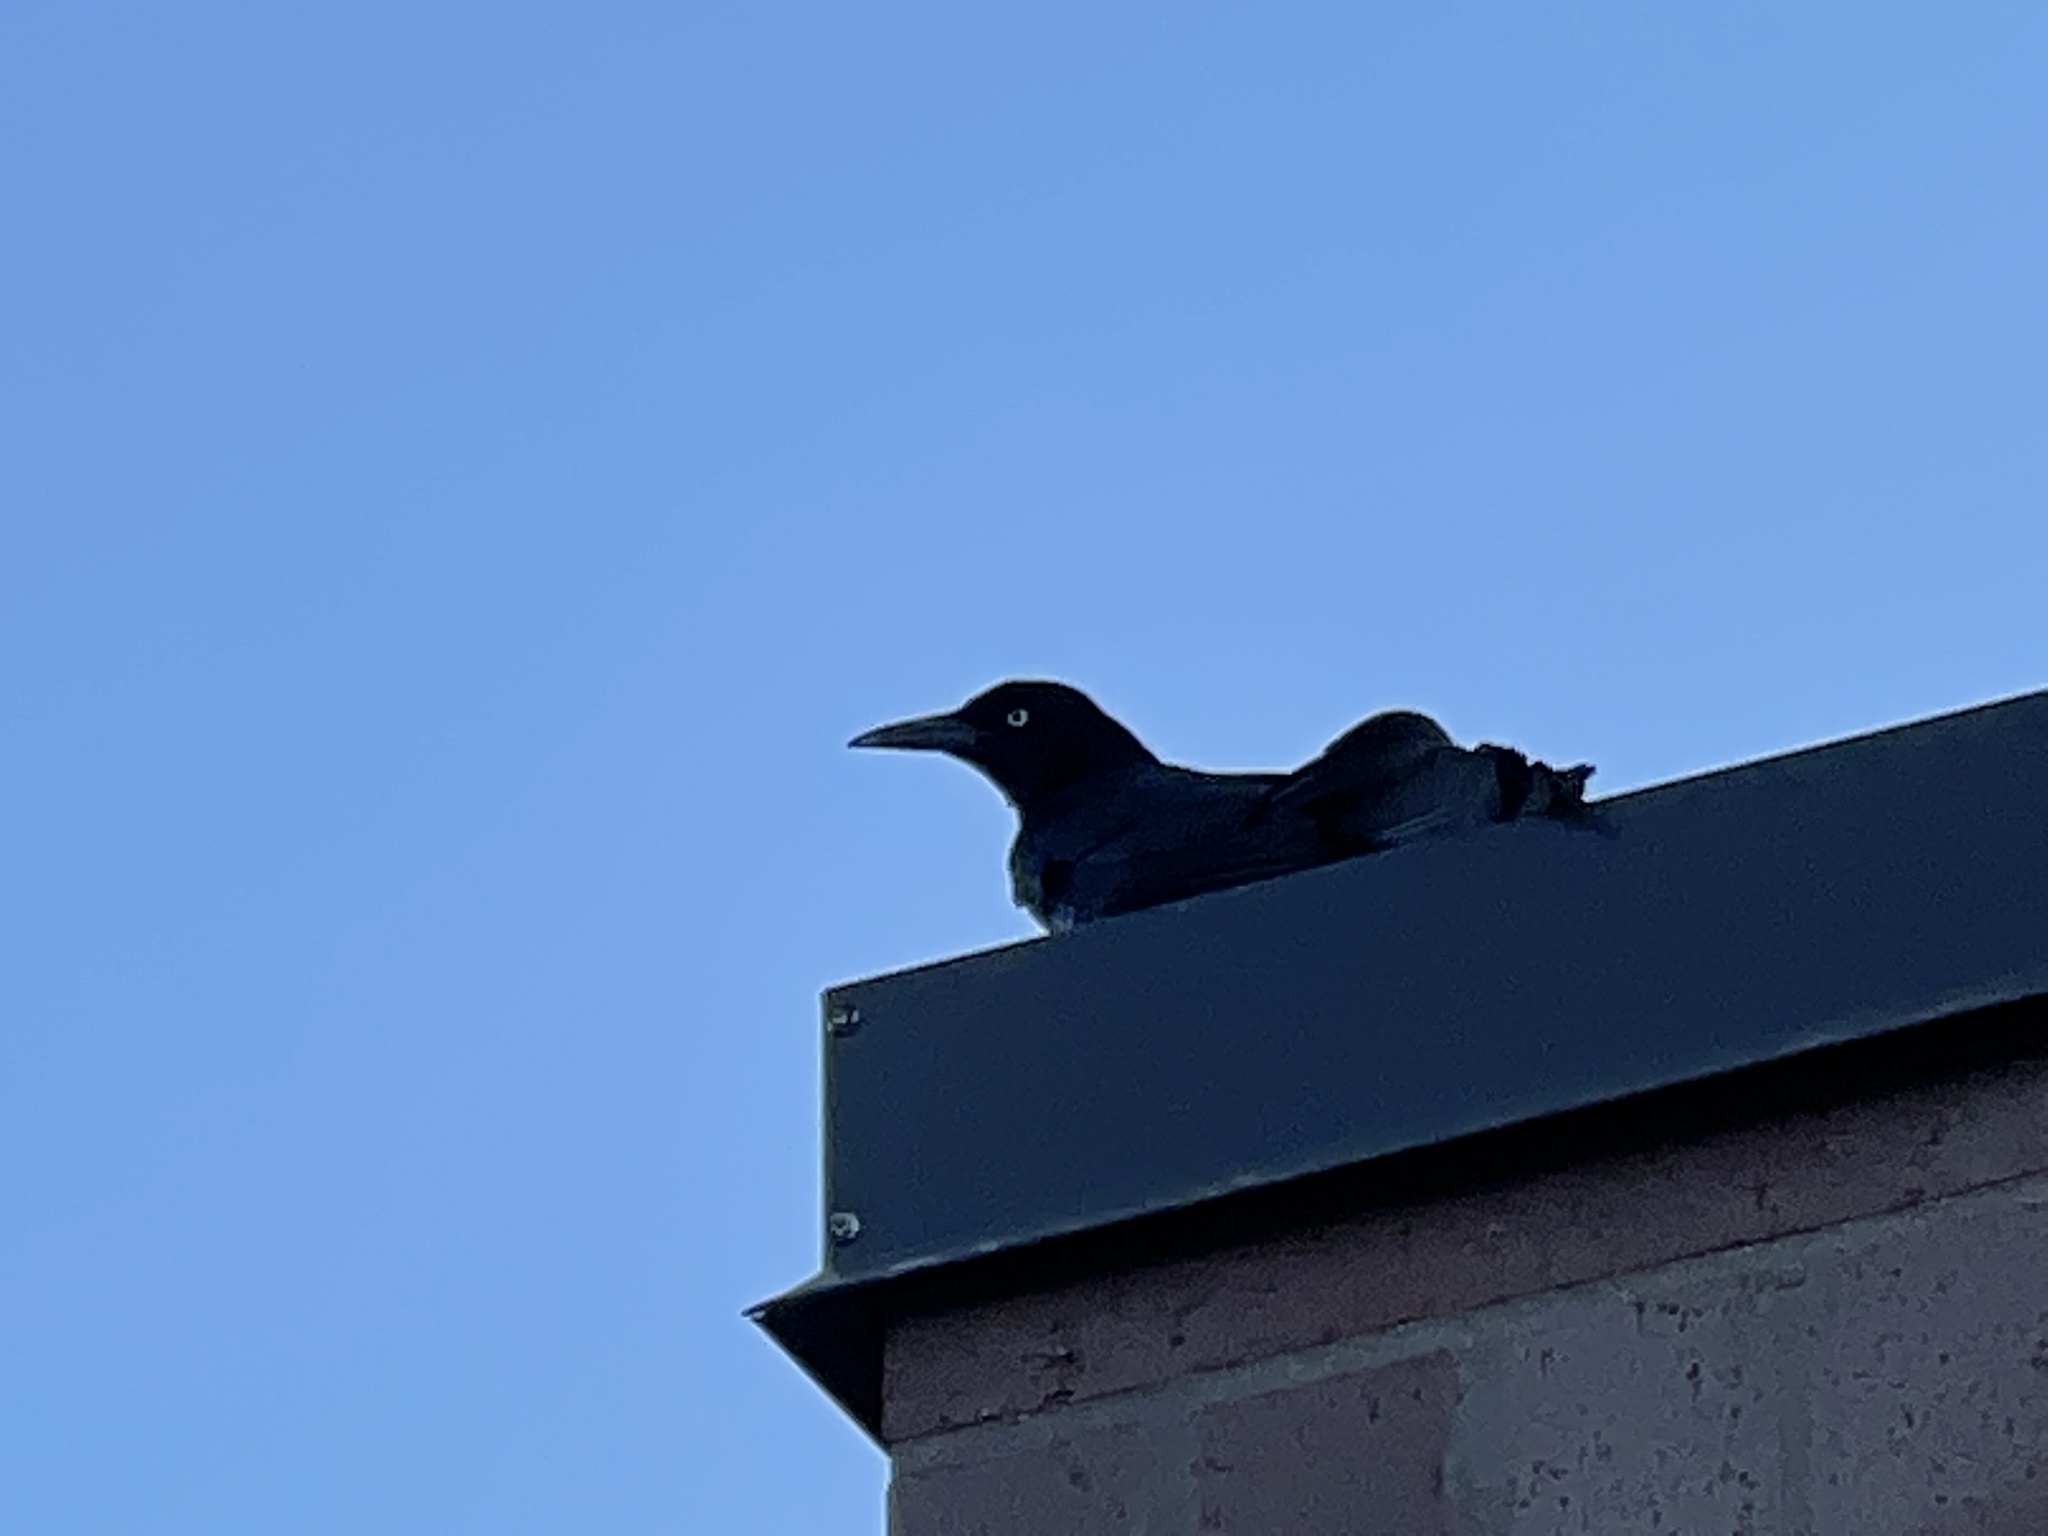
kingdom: Animalia
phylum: Chordata
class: Aves
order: Passeriformes
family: Icteridae
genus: Quiscalus
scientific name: Quiscalus mexicanus
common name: Great-tailed grackle
